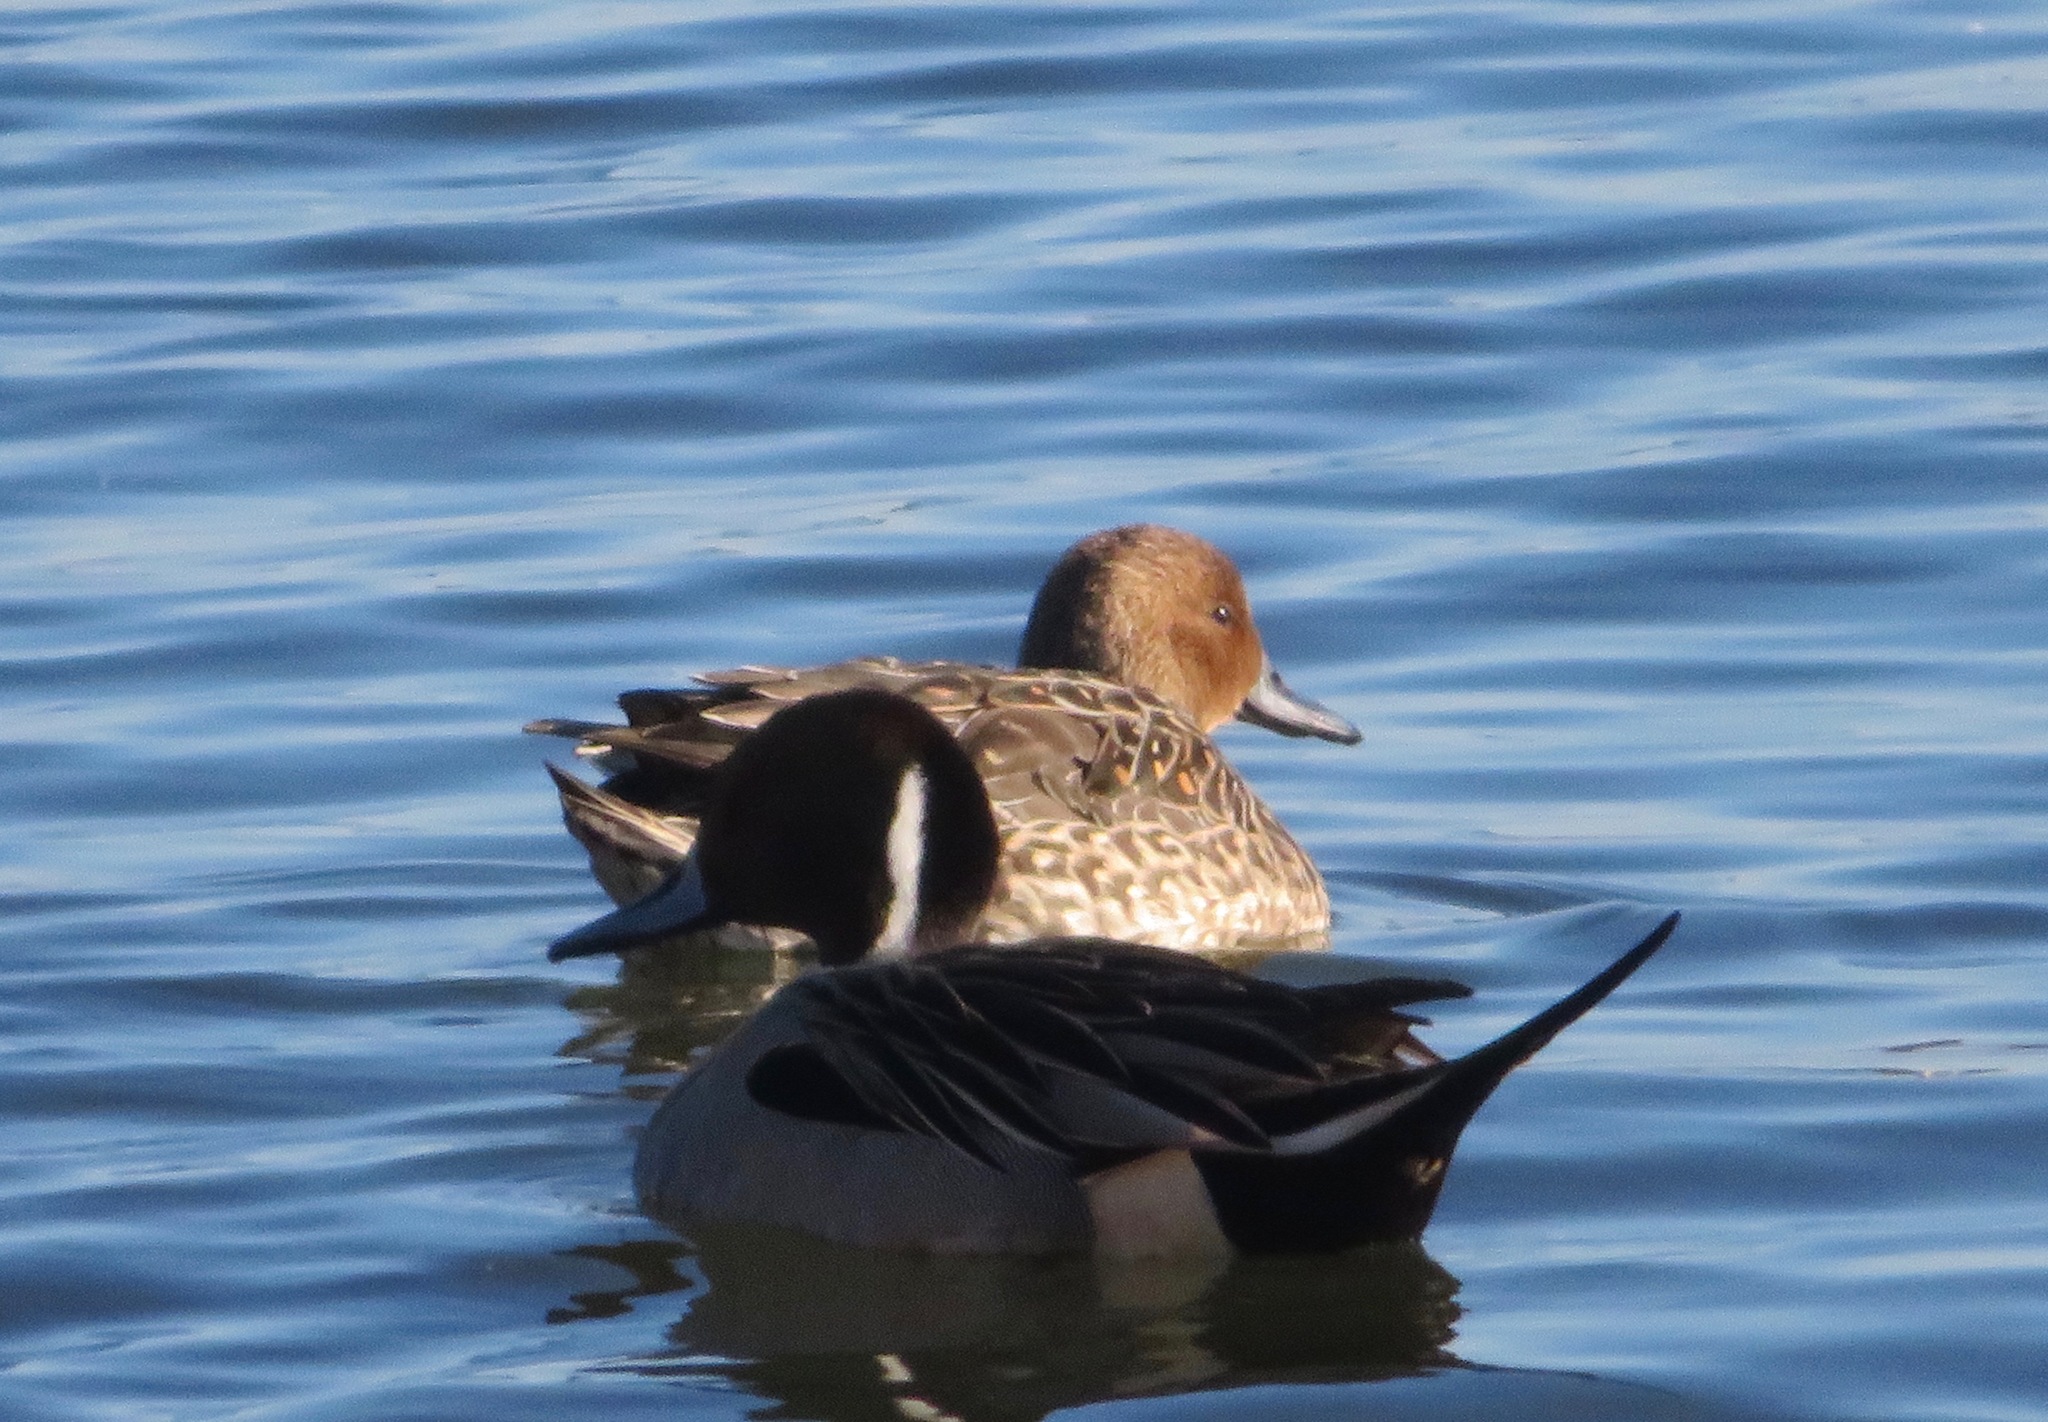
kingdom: Animalia
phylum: Chordata
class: Aves
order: Anseriformes
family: Anatidae
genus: Anas
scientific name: Anas acuta
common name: Northern pintail
